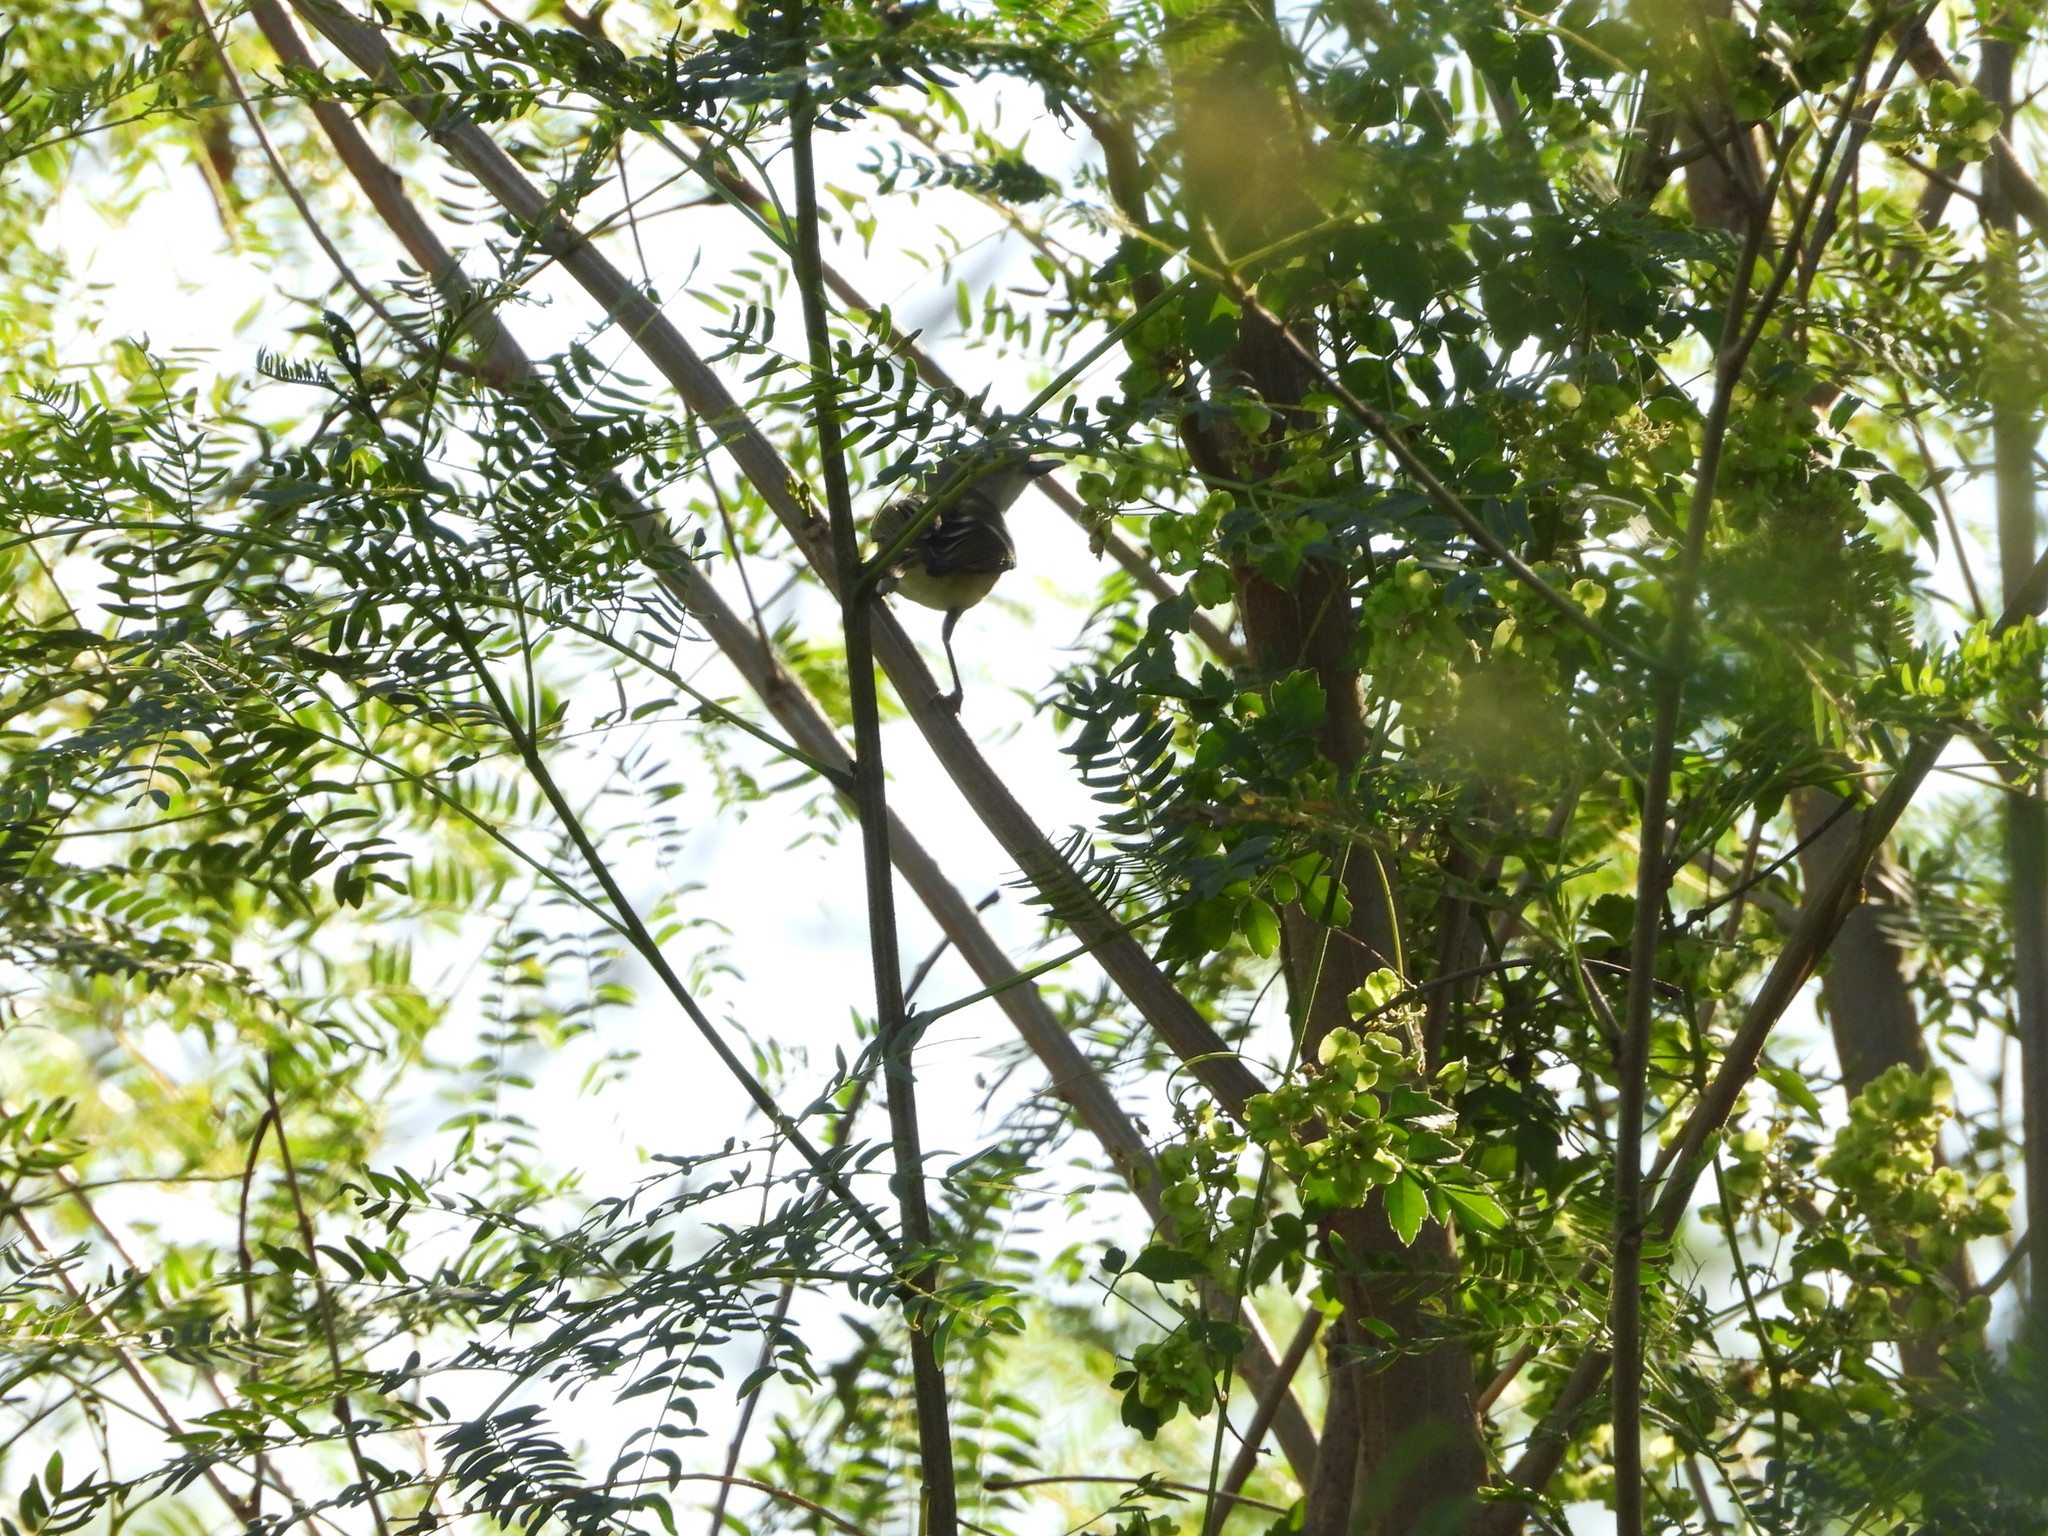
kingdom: Animalia
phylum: Chordata
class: Aves
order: Passeriformes
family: Vireonidae
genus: Vireo
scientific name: Vireo griseus
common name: White-eyed vireo
